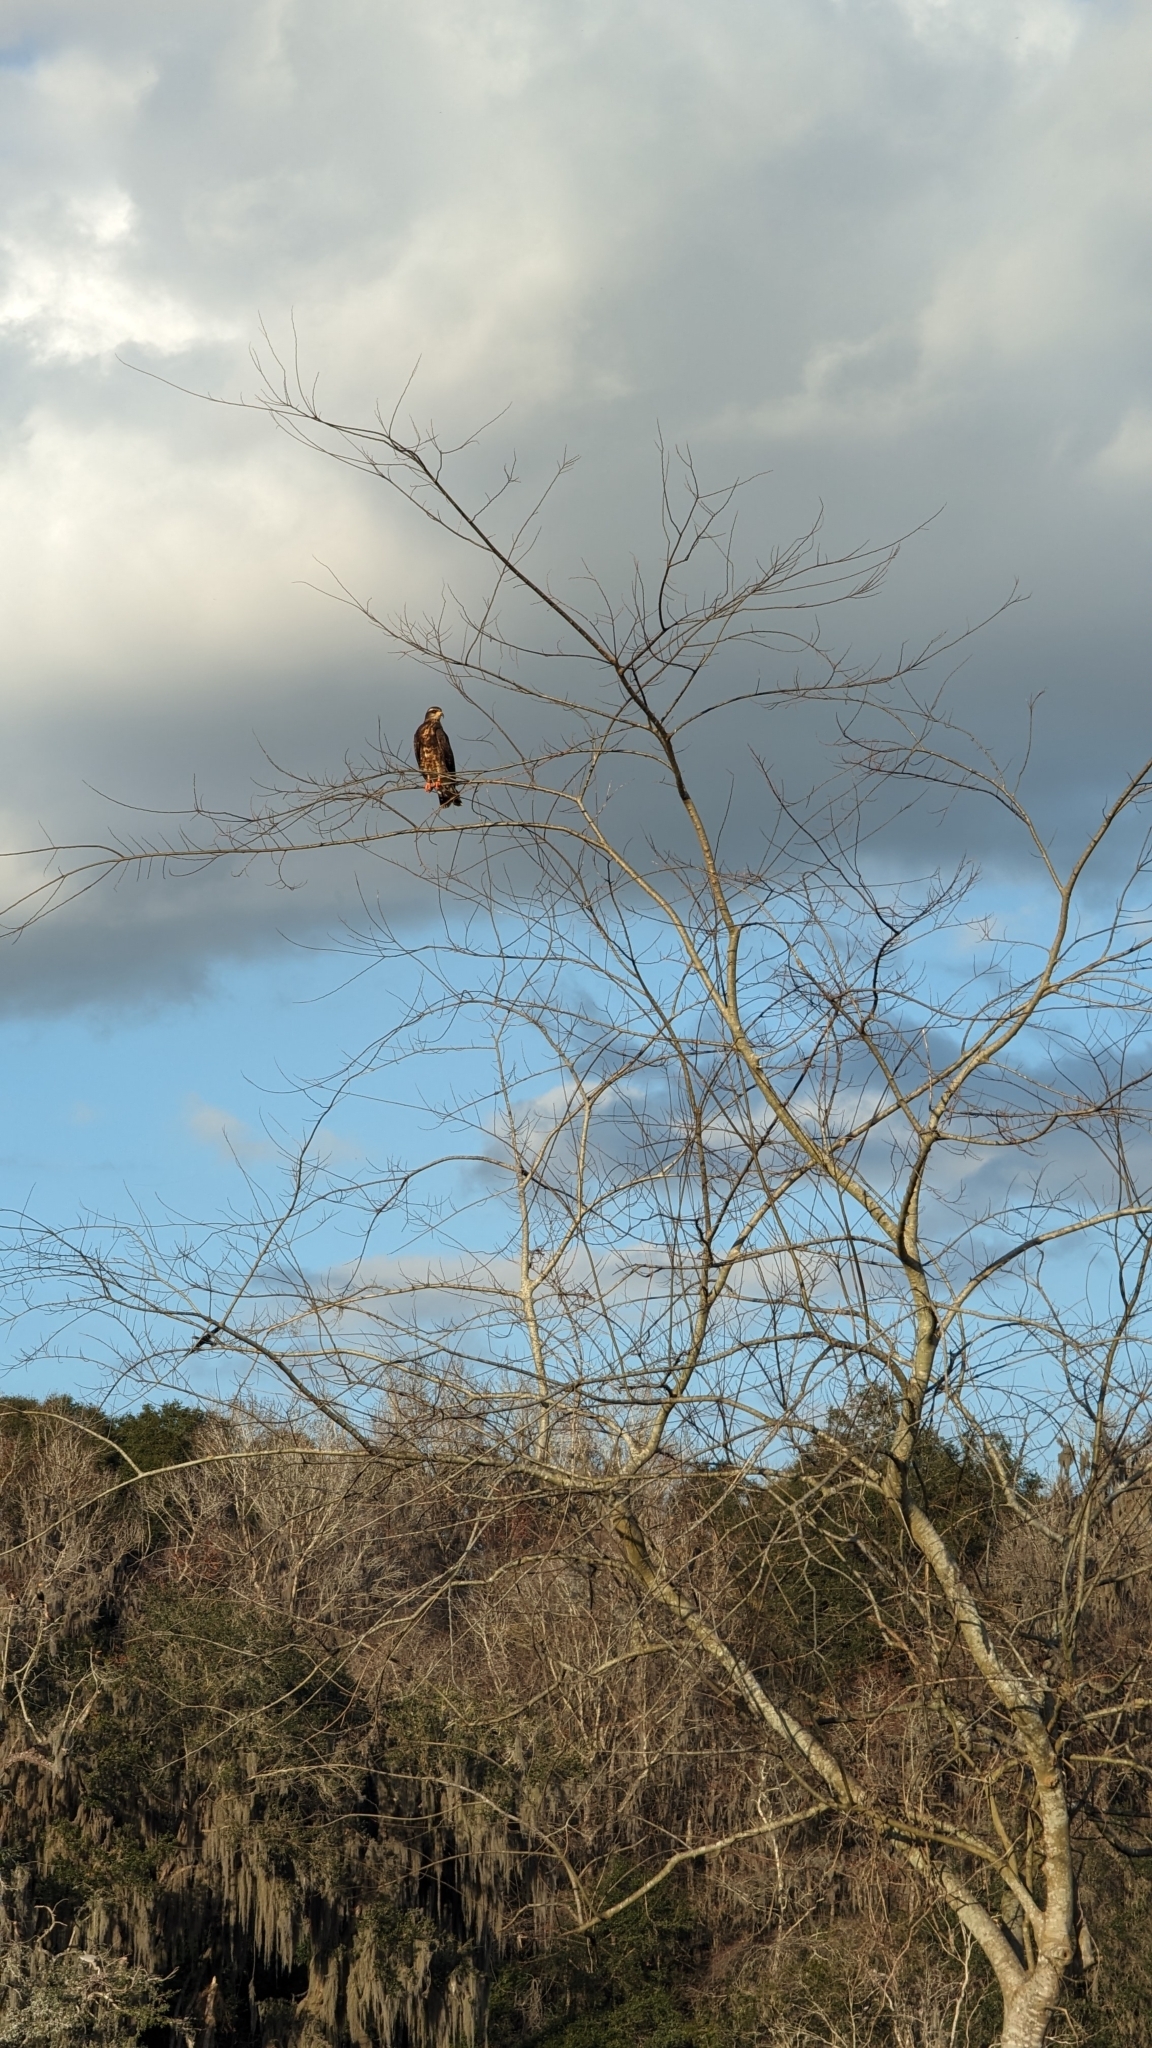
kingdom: Animalia
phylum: Chordata
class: Aves
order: Accipitriformes
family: Accipitridae
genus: Rostrhamus
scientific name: Rostrhamus sociabilis
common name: Snail kite
